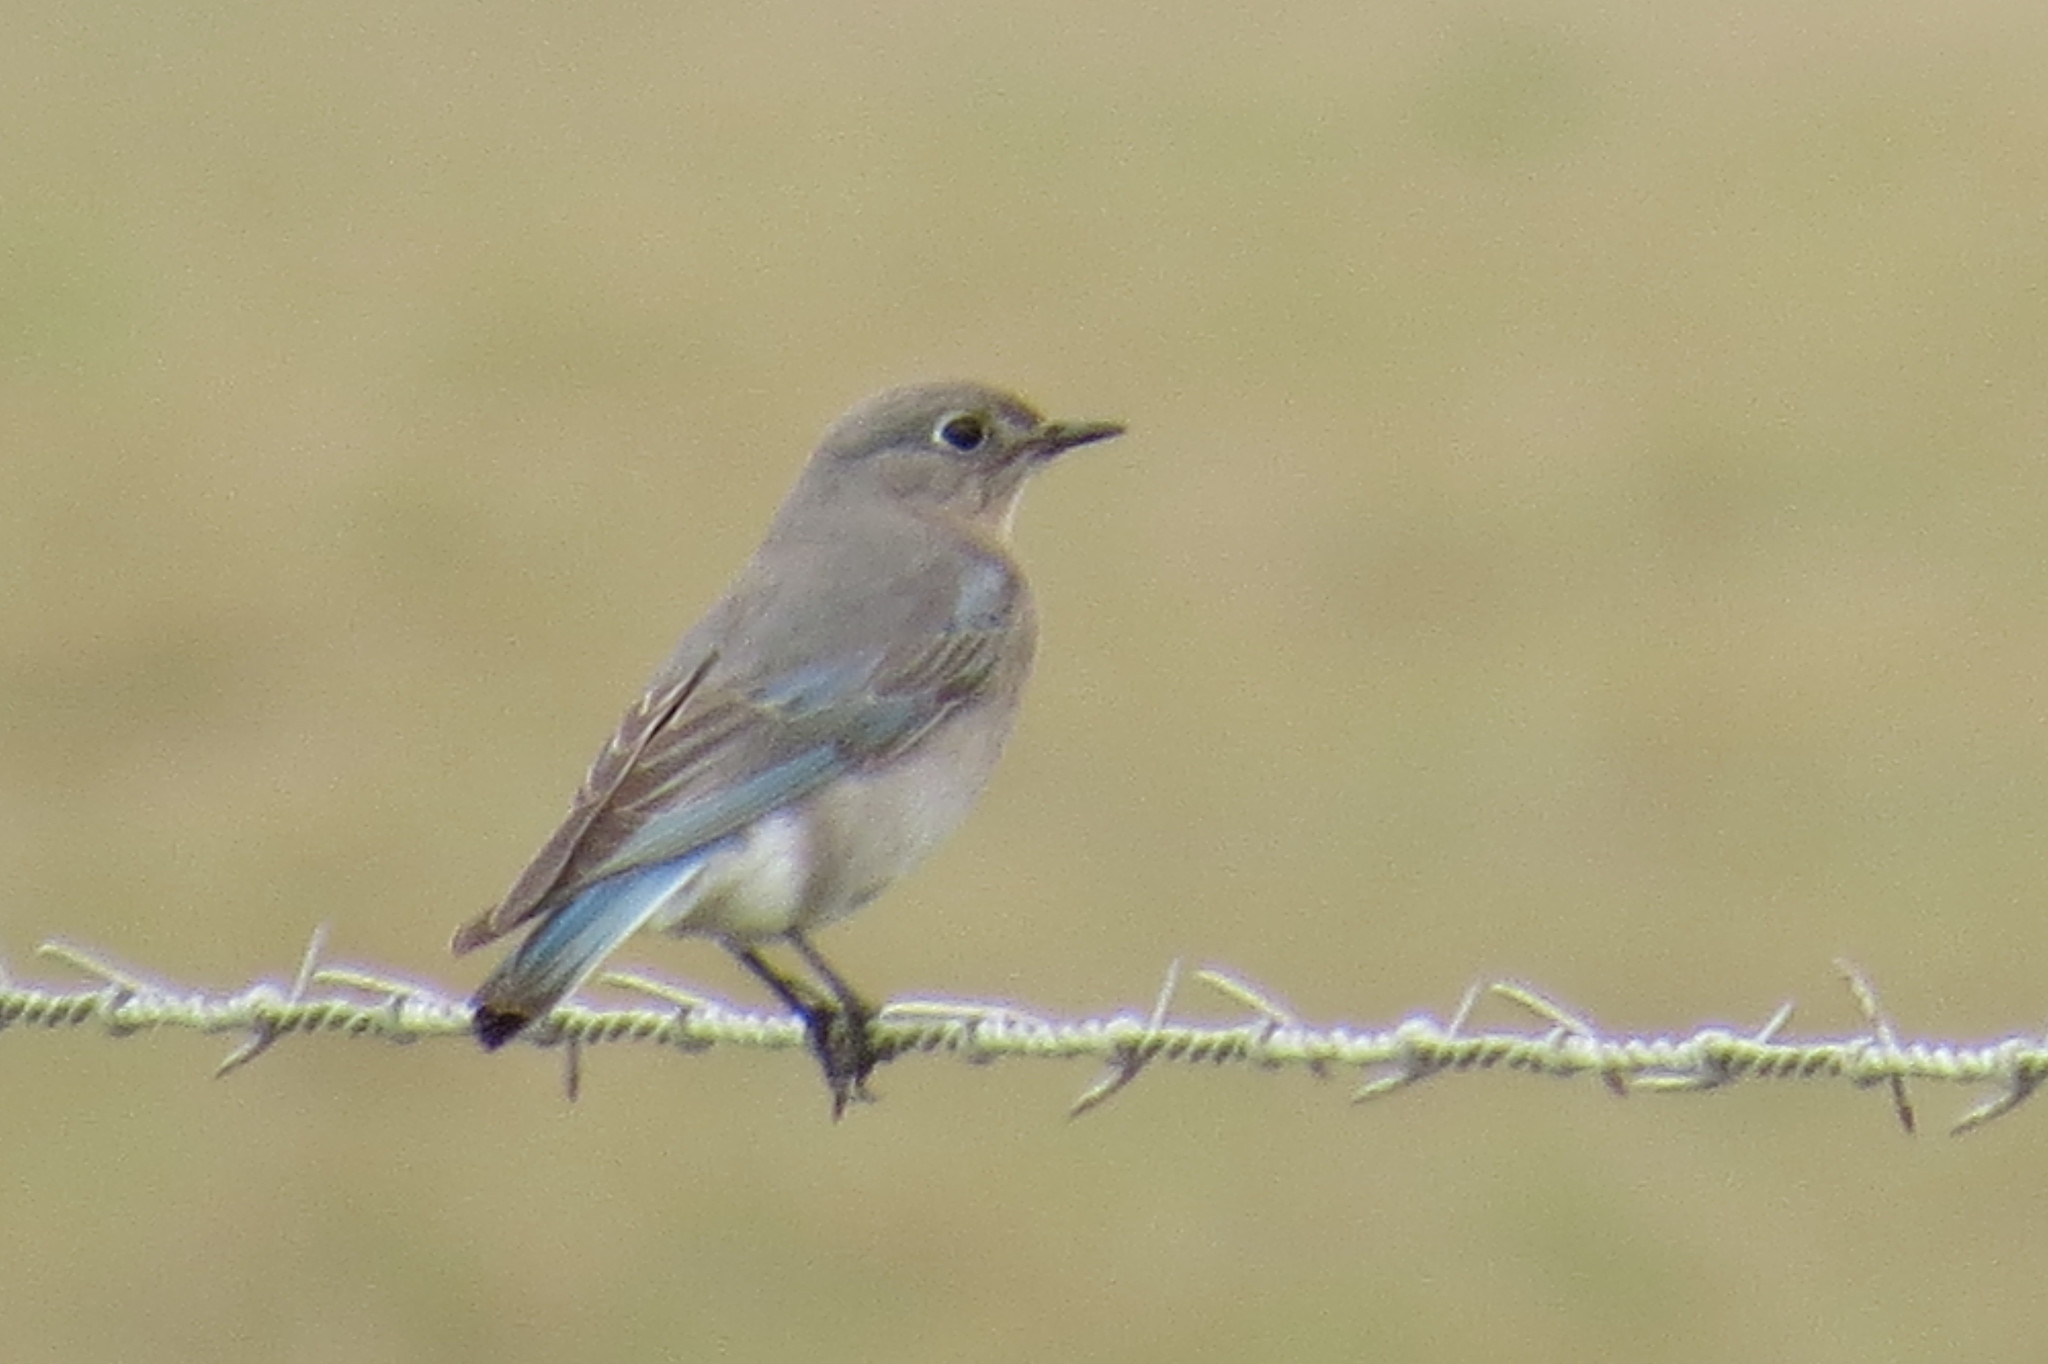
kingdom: Animalia
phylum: Chordata
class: Aves
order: Passeriformes
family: Turdidae
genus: Sialia
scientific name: Sialia currucoides
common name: Mountain bluebird
